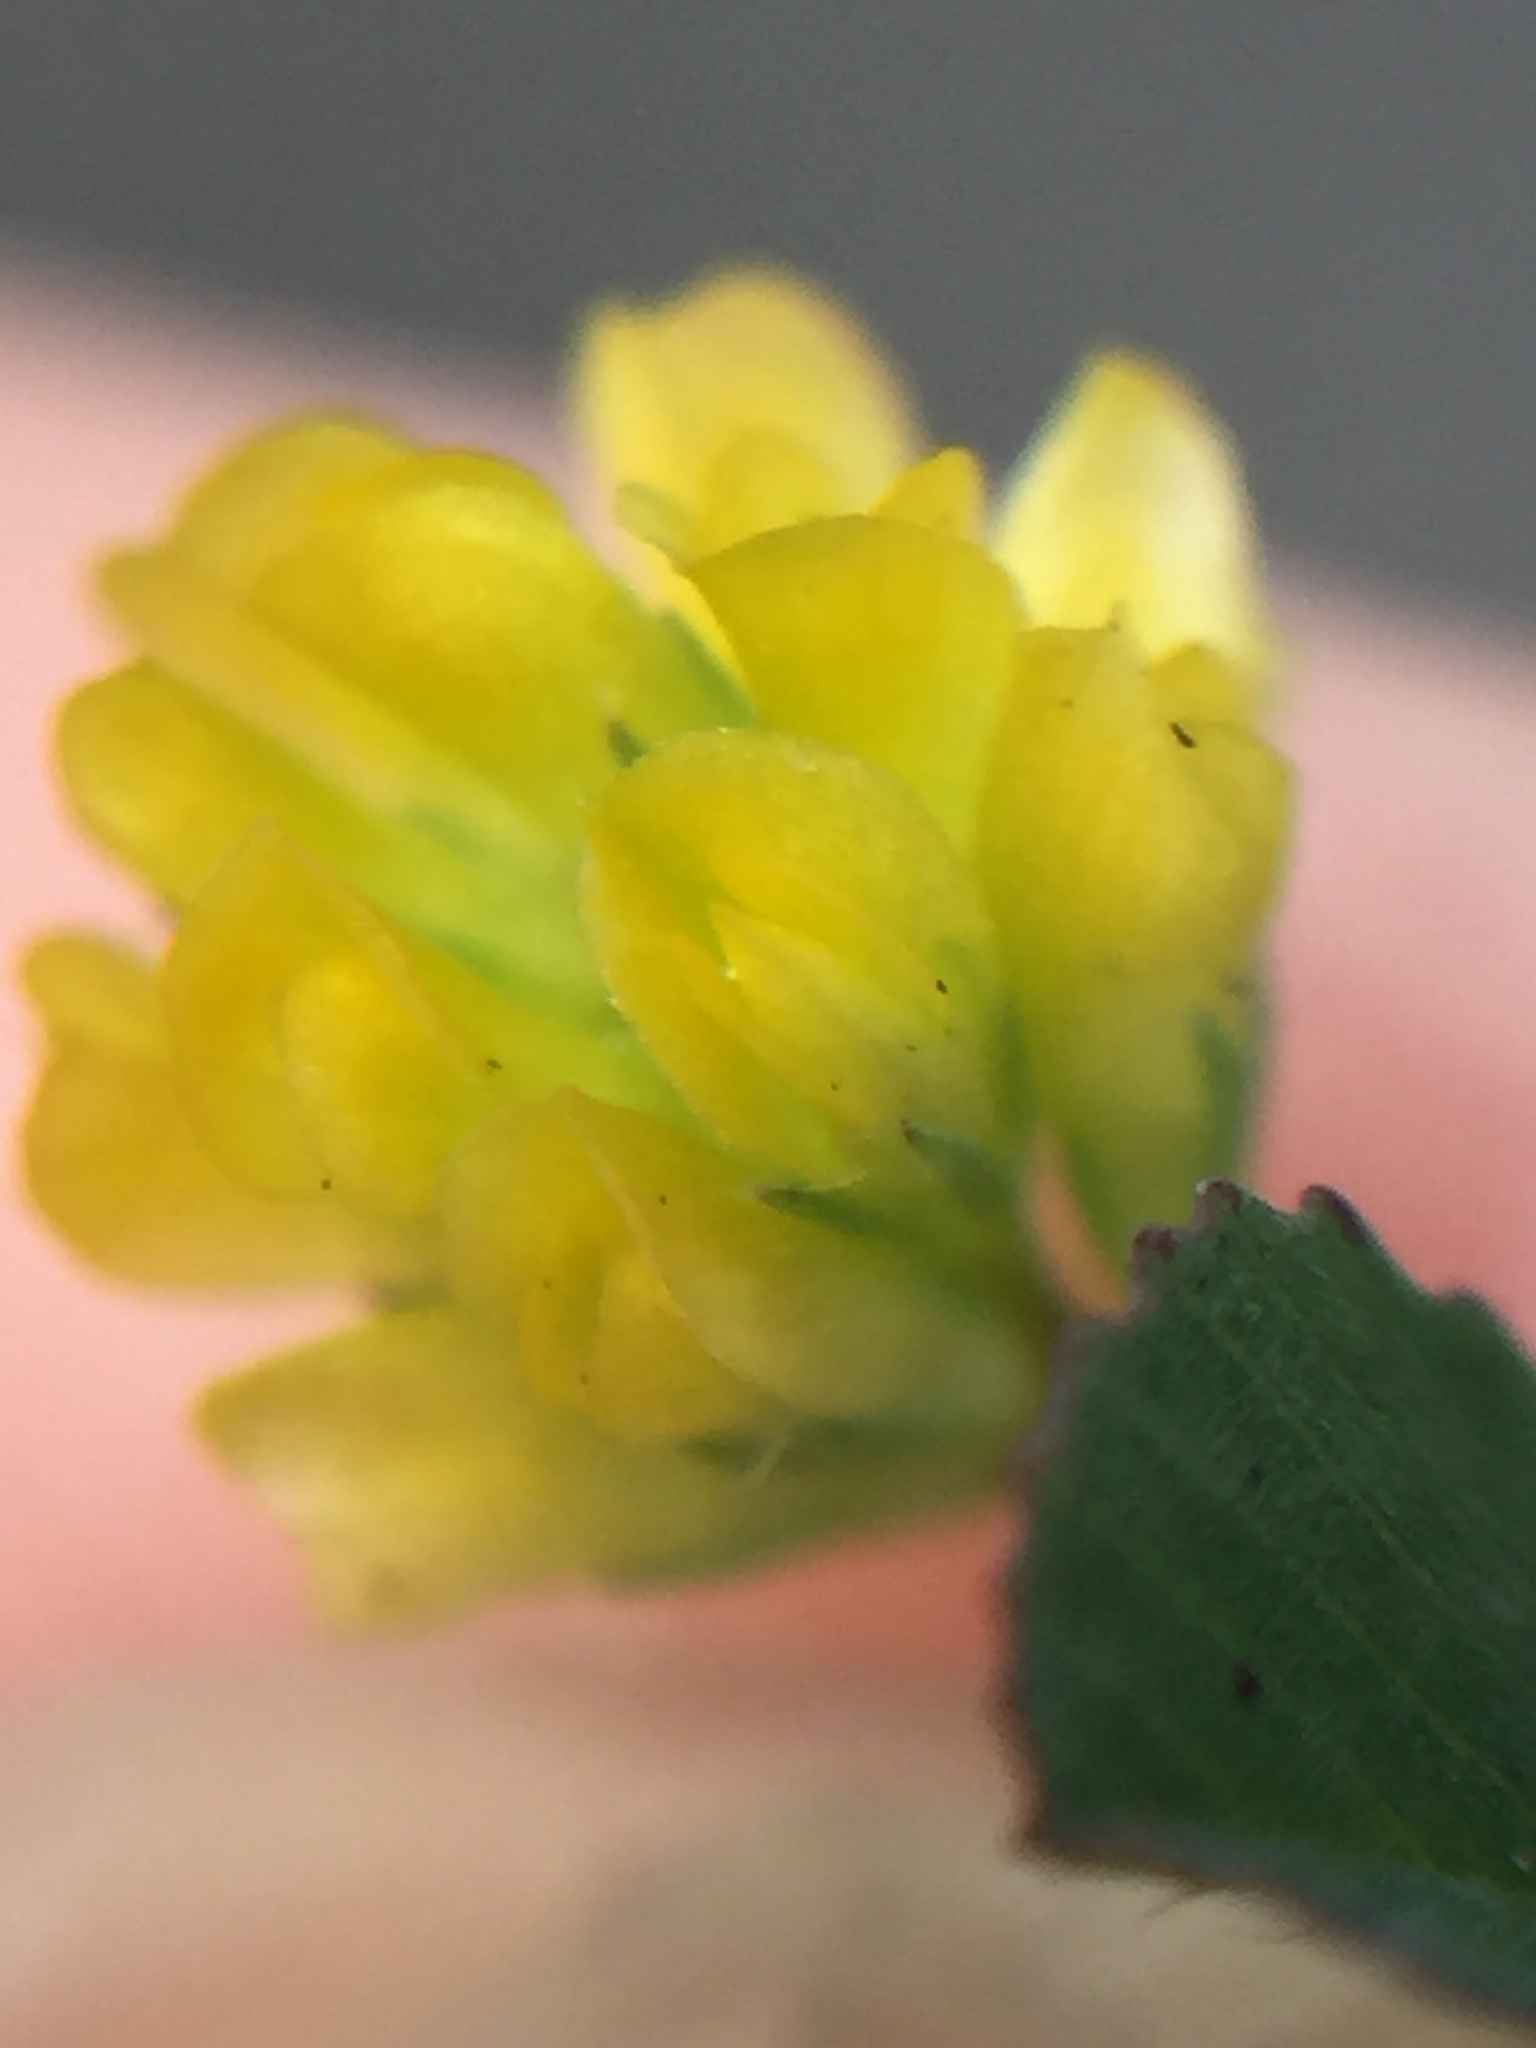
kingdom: Plantae
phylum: Tracheophyta
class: Magnoliopsida
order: Fabales
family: Fabaceae
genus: Trifolium
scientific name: Trifolium dubium
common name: Suckling clover
